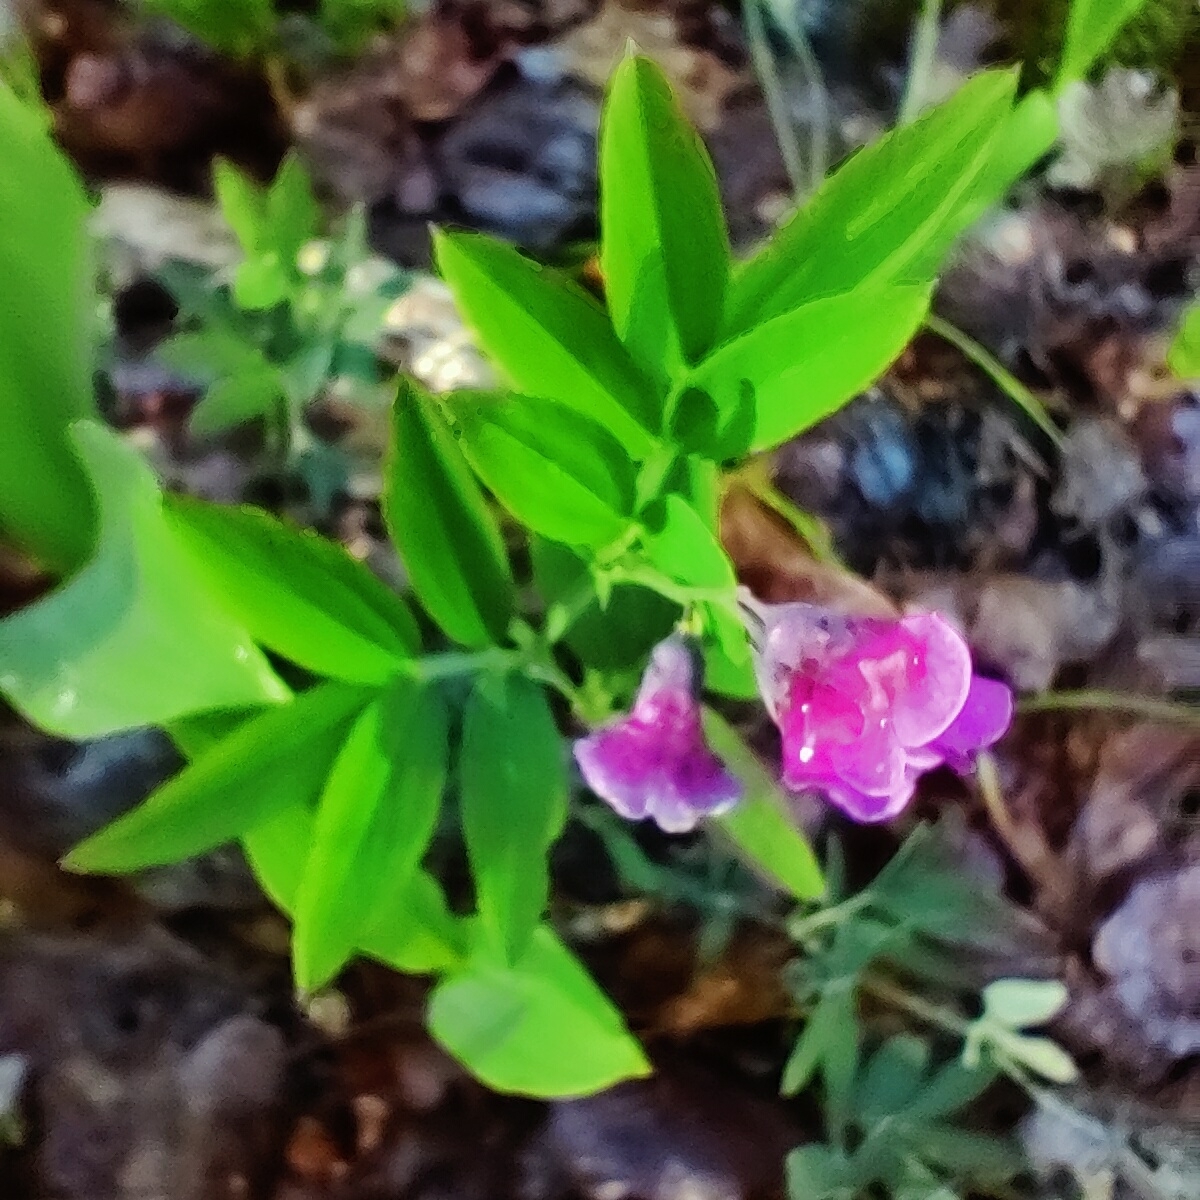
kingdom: Plantae
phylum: Tracheophyta
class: Magnoliopsida
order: Fabales
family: Fabaceae
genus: Lathyrus
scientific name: Lathyrus linifolius
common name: Bitter-vetch
